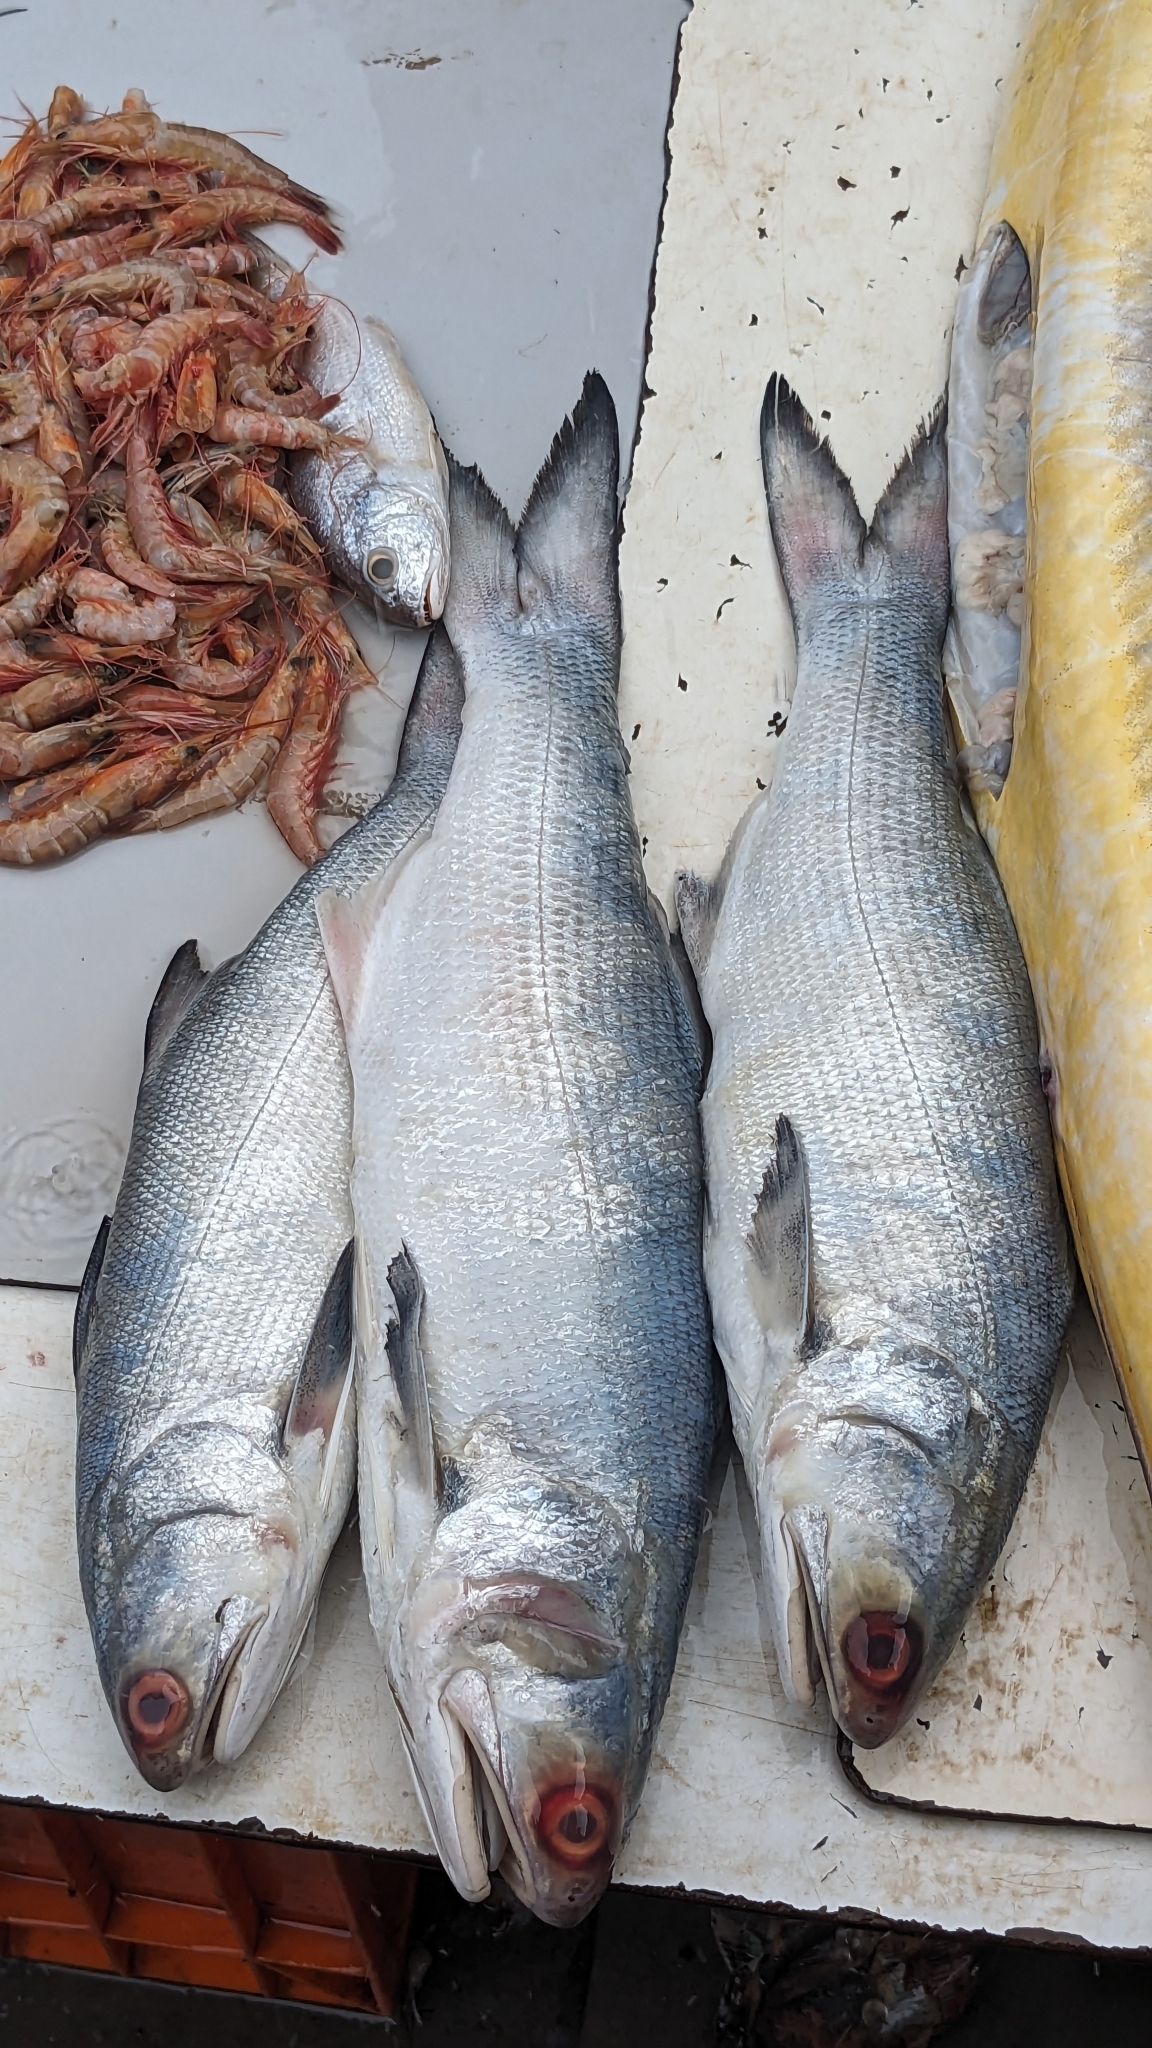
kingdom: Animalia
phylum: Chordata
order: Perciformes
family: Polynemidae
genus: Eleutheronema
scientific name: Eleutheronema tetradactylum
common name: Fourfinger threadfin
